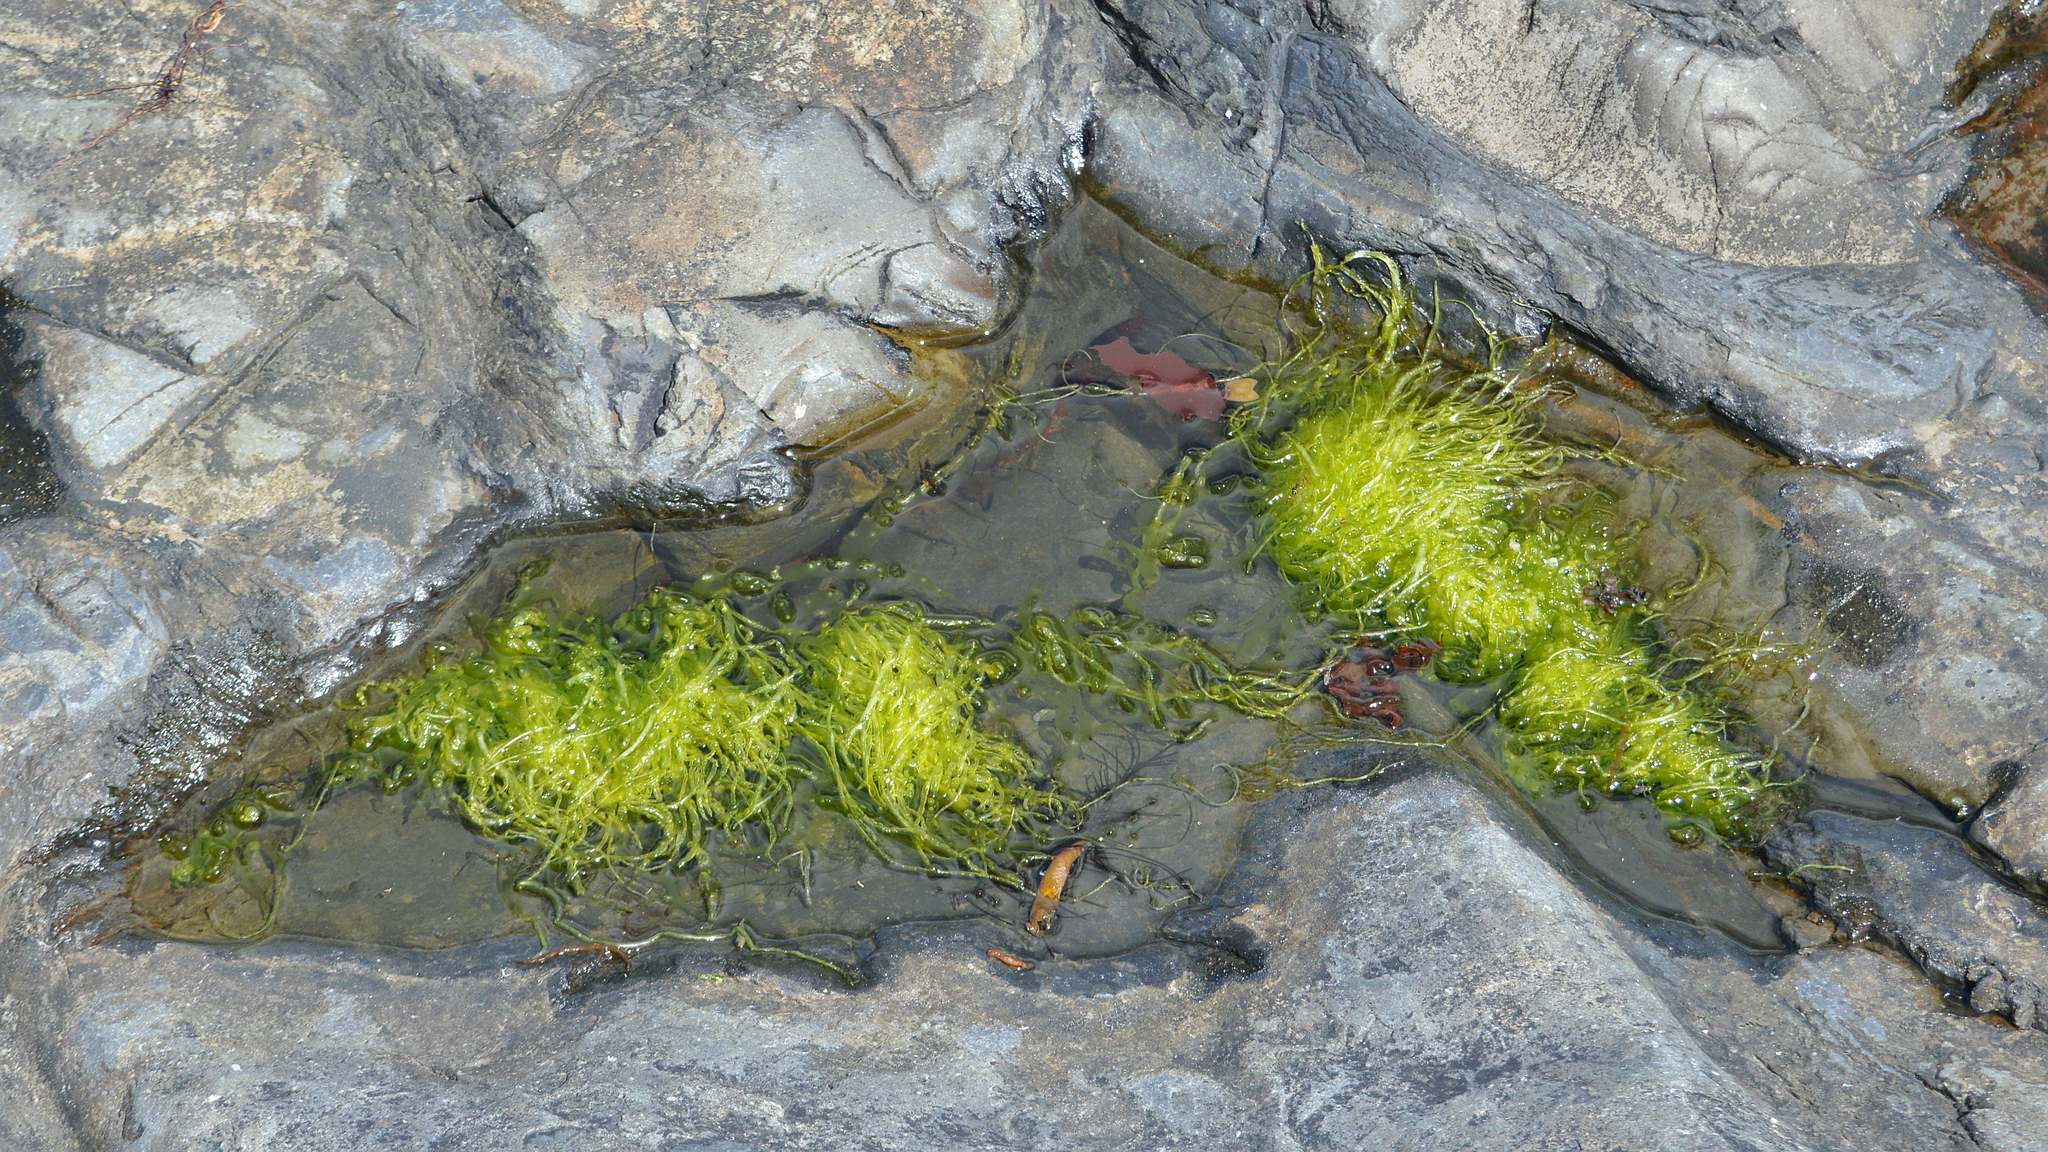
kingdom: Plantae
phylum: Chlorophyta
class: Ulvophyceae
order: Ulvales
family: Ulvaceae
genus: Ulva
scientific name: Ulva intestinalis
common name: Gut weed
